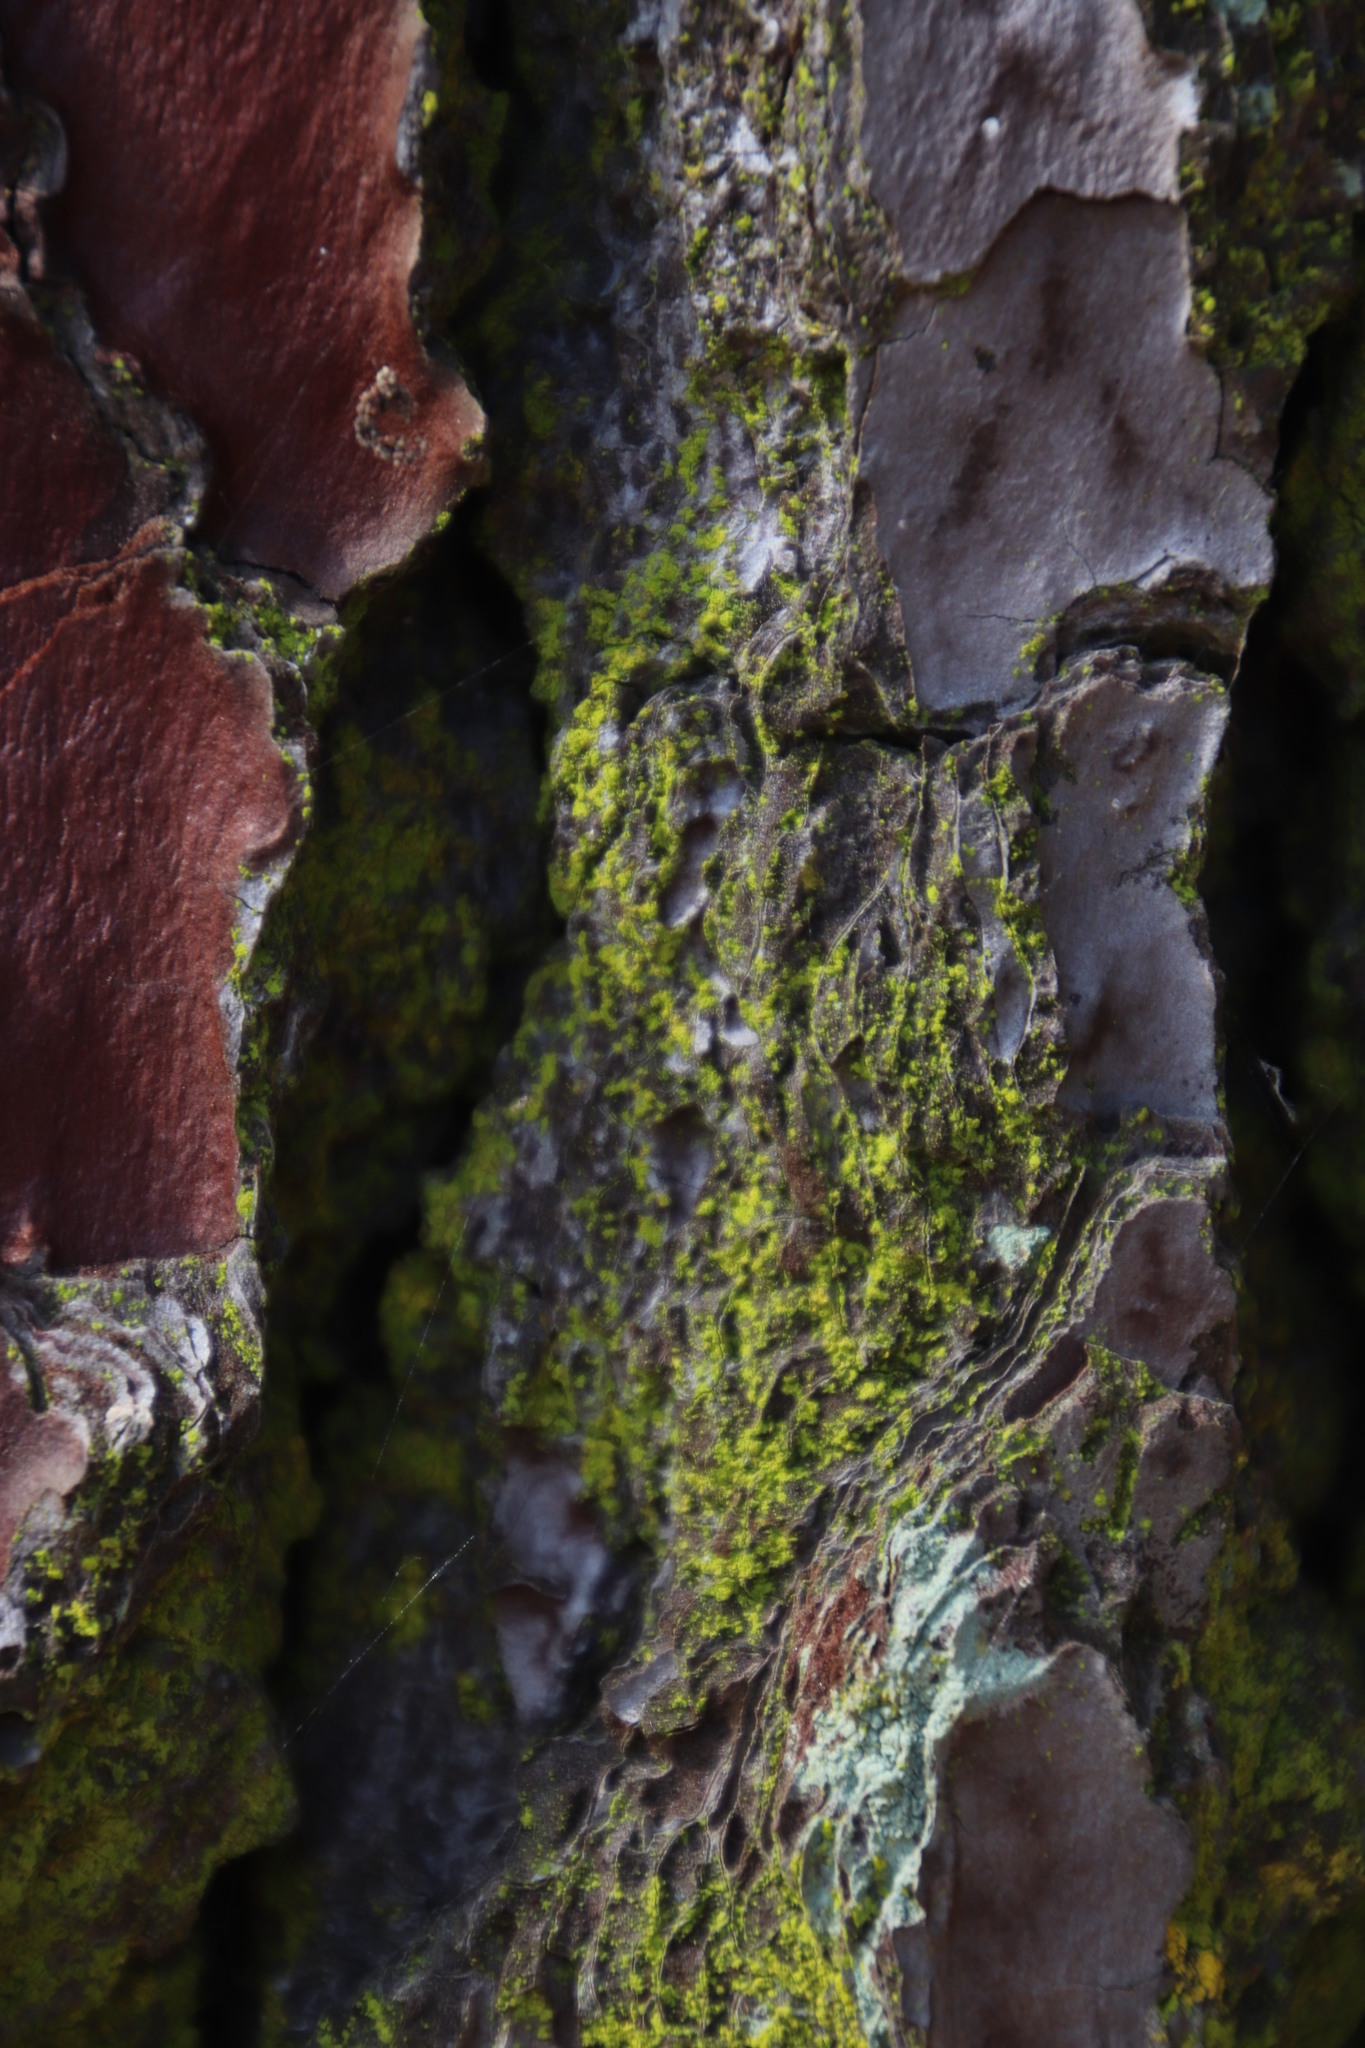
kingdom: Fungi
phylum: Ascomycota
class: Arthoniomycetes
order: Arthoniales
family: Chrysotrichaceae
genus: Chrysothrix
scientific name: Chrysothrix candelaris
